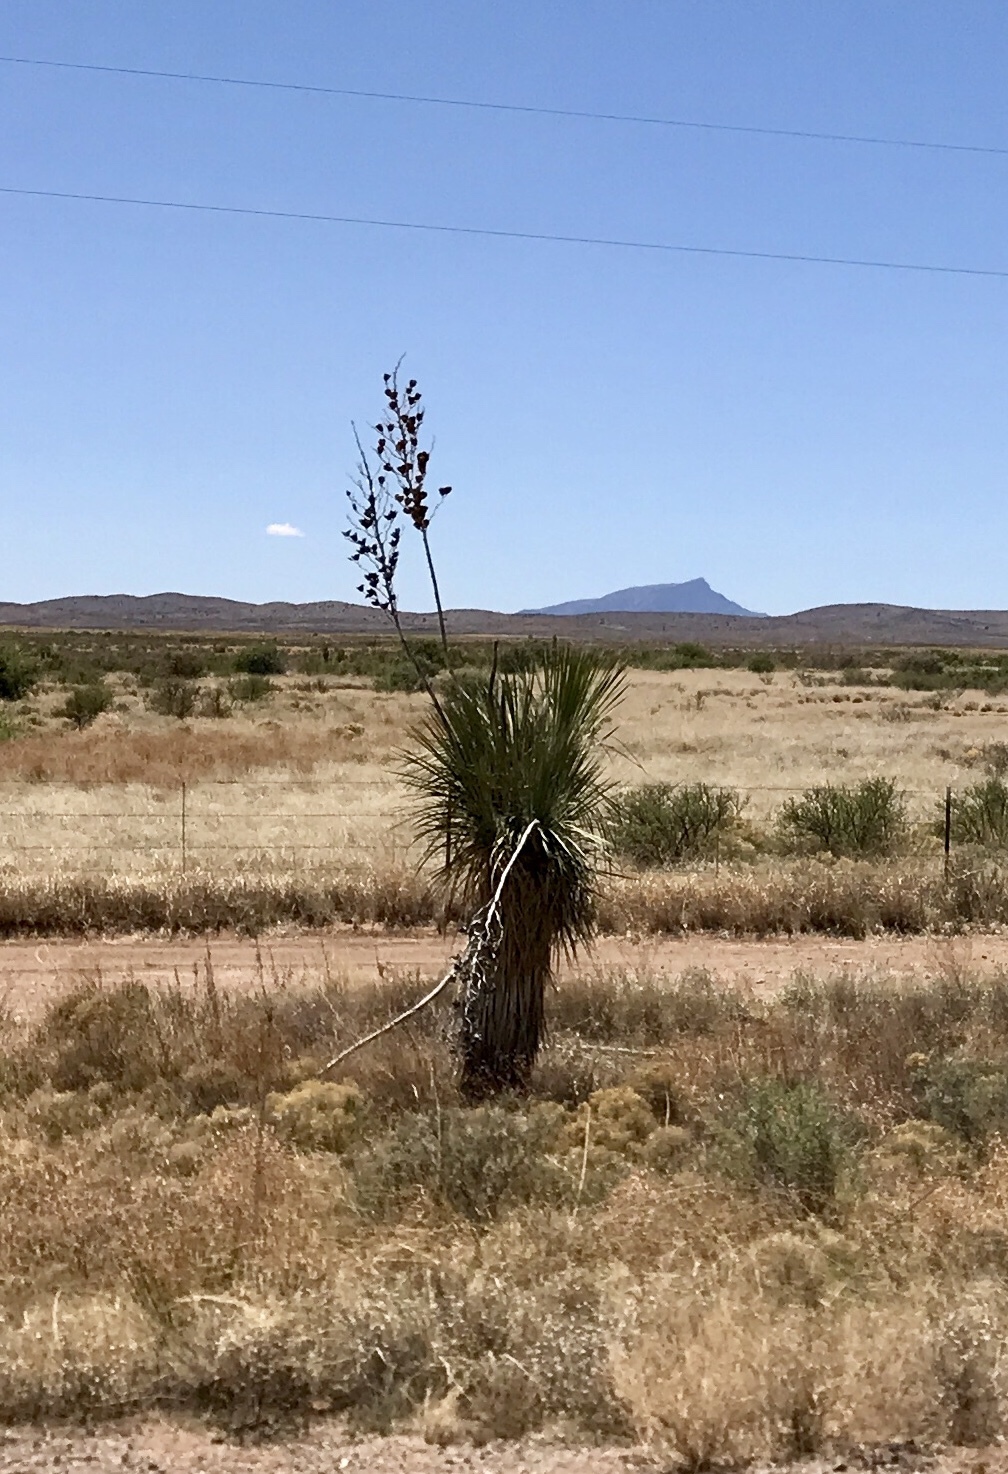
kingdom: Plantae
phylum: Tracheophyta
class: Liliopsida
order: Asparagales
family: Asparagaceae
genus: Yucca
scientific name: Yucca elata
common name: Palmella
